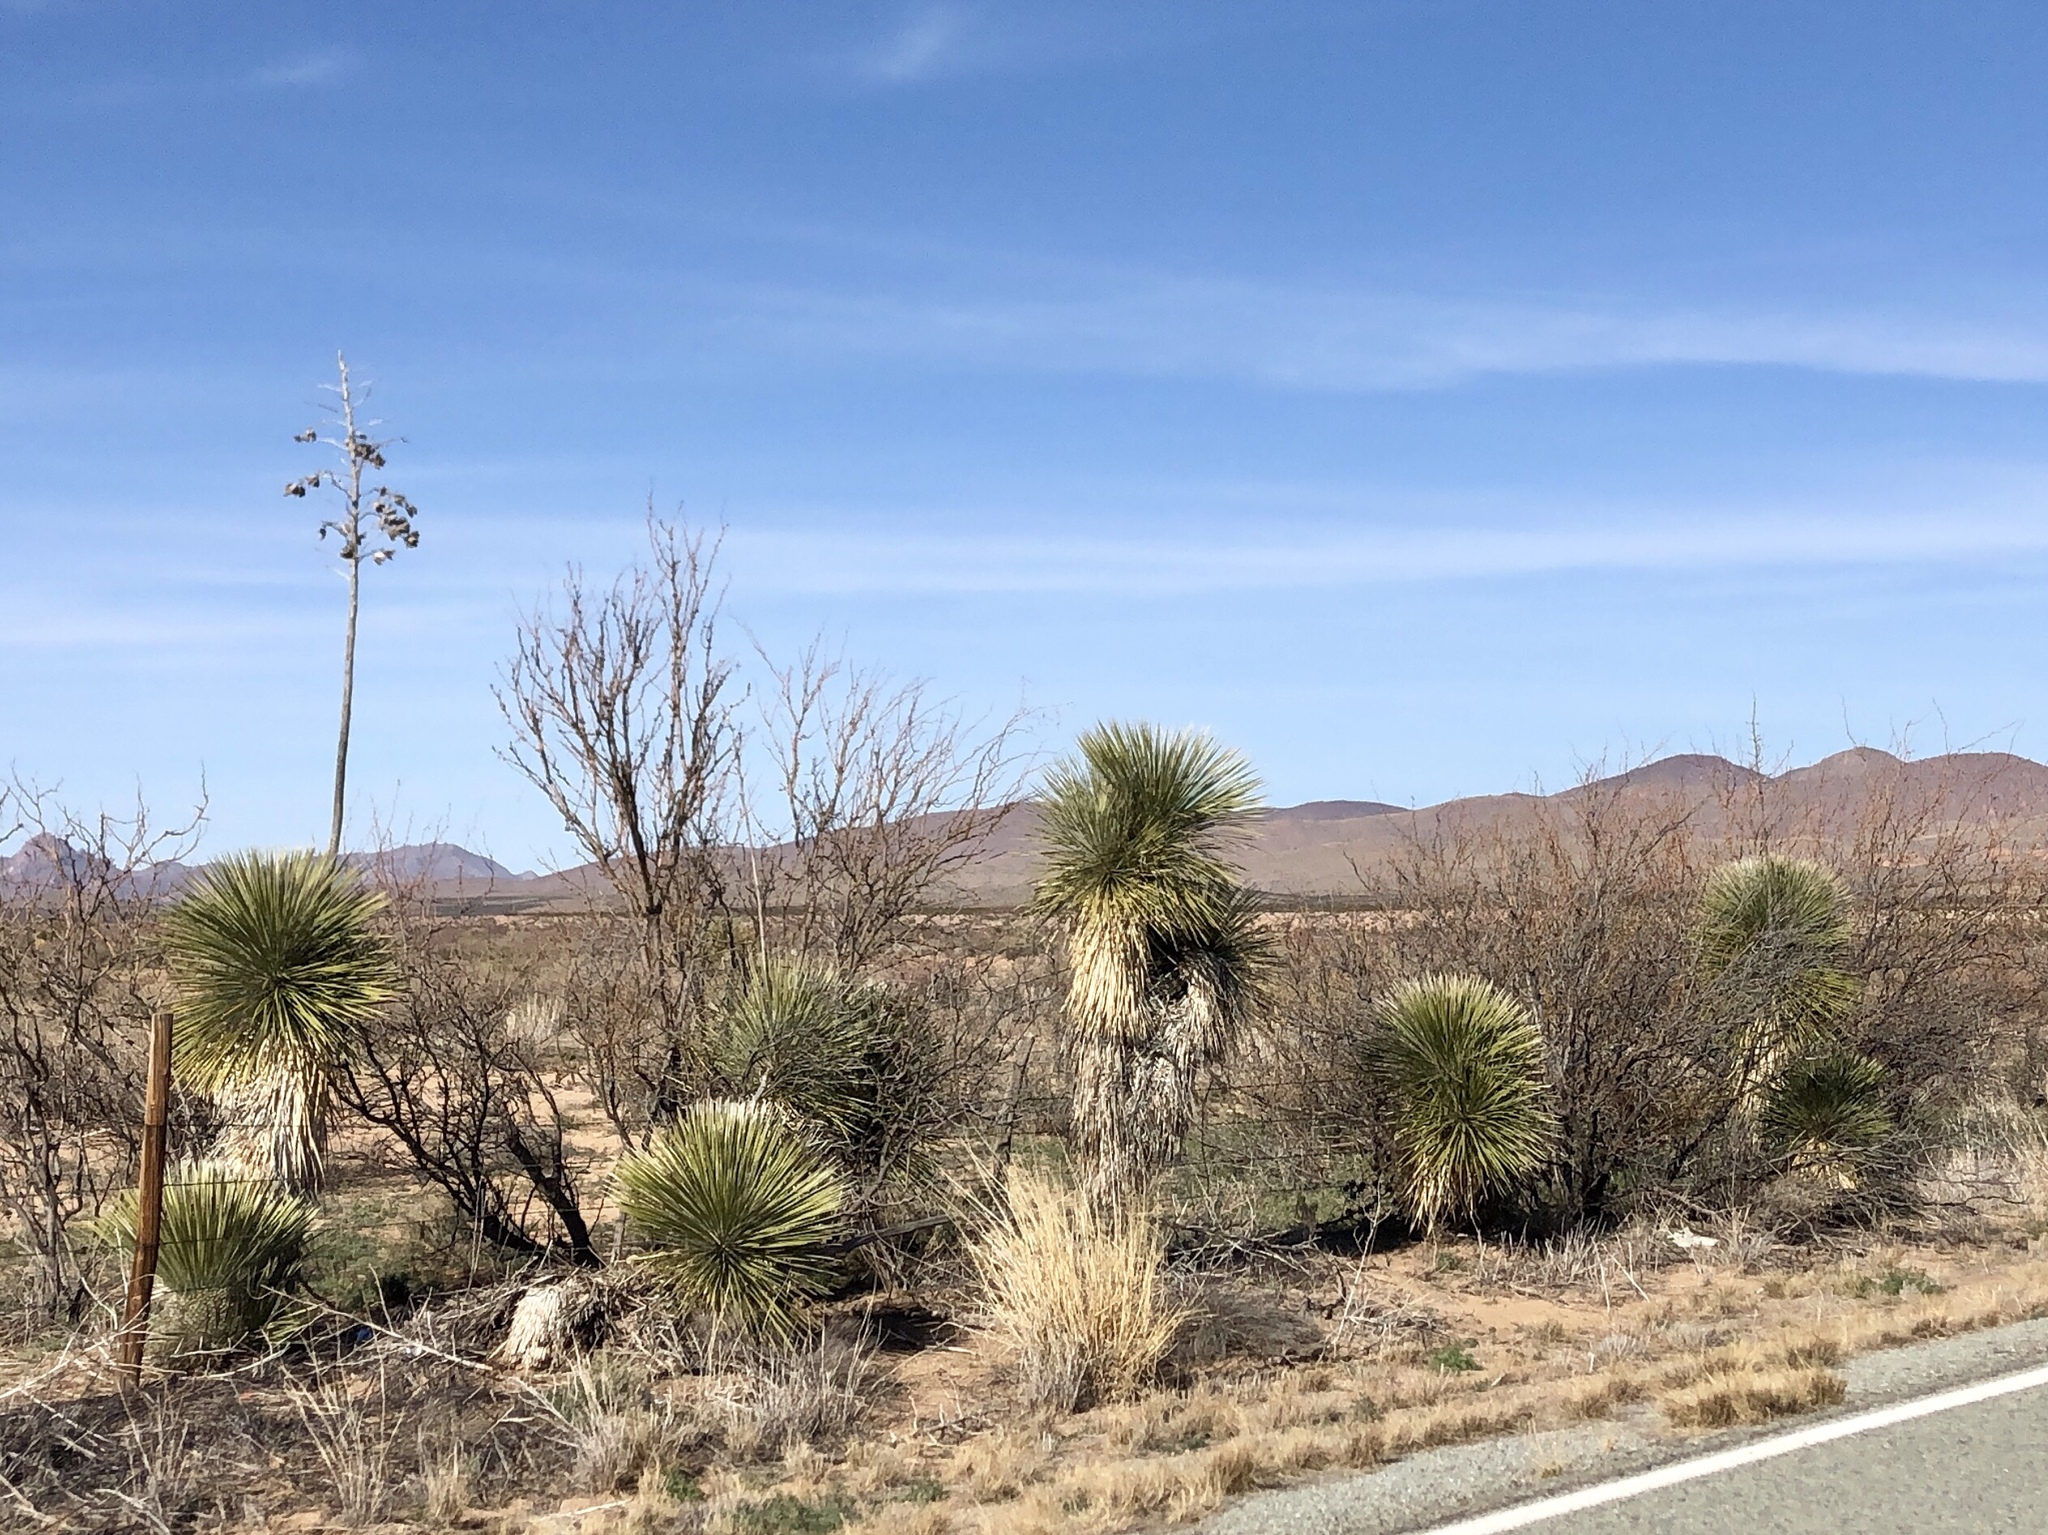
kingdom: Plantae
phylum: Tracheophyta
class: Liliopsida
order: Asparagales
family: Asparagaceae
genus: Yucca
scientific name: Yucca elata
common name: Palmella
